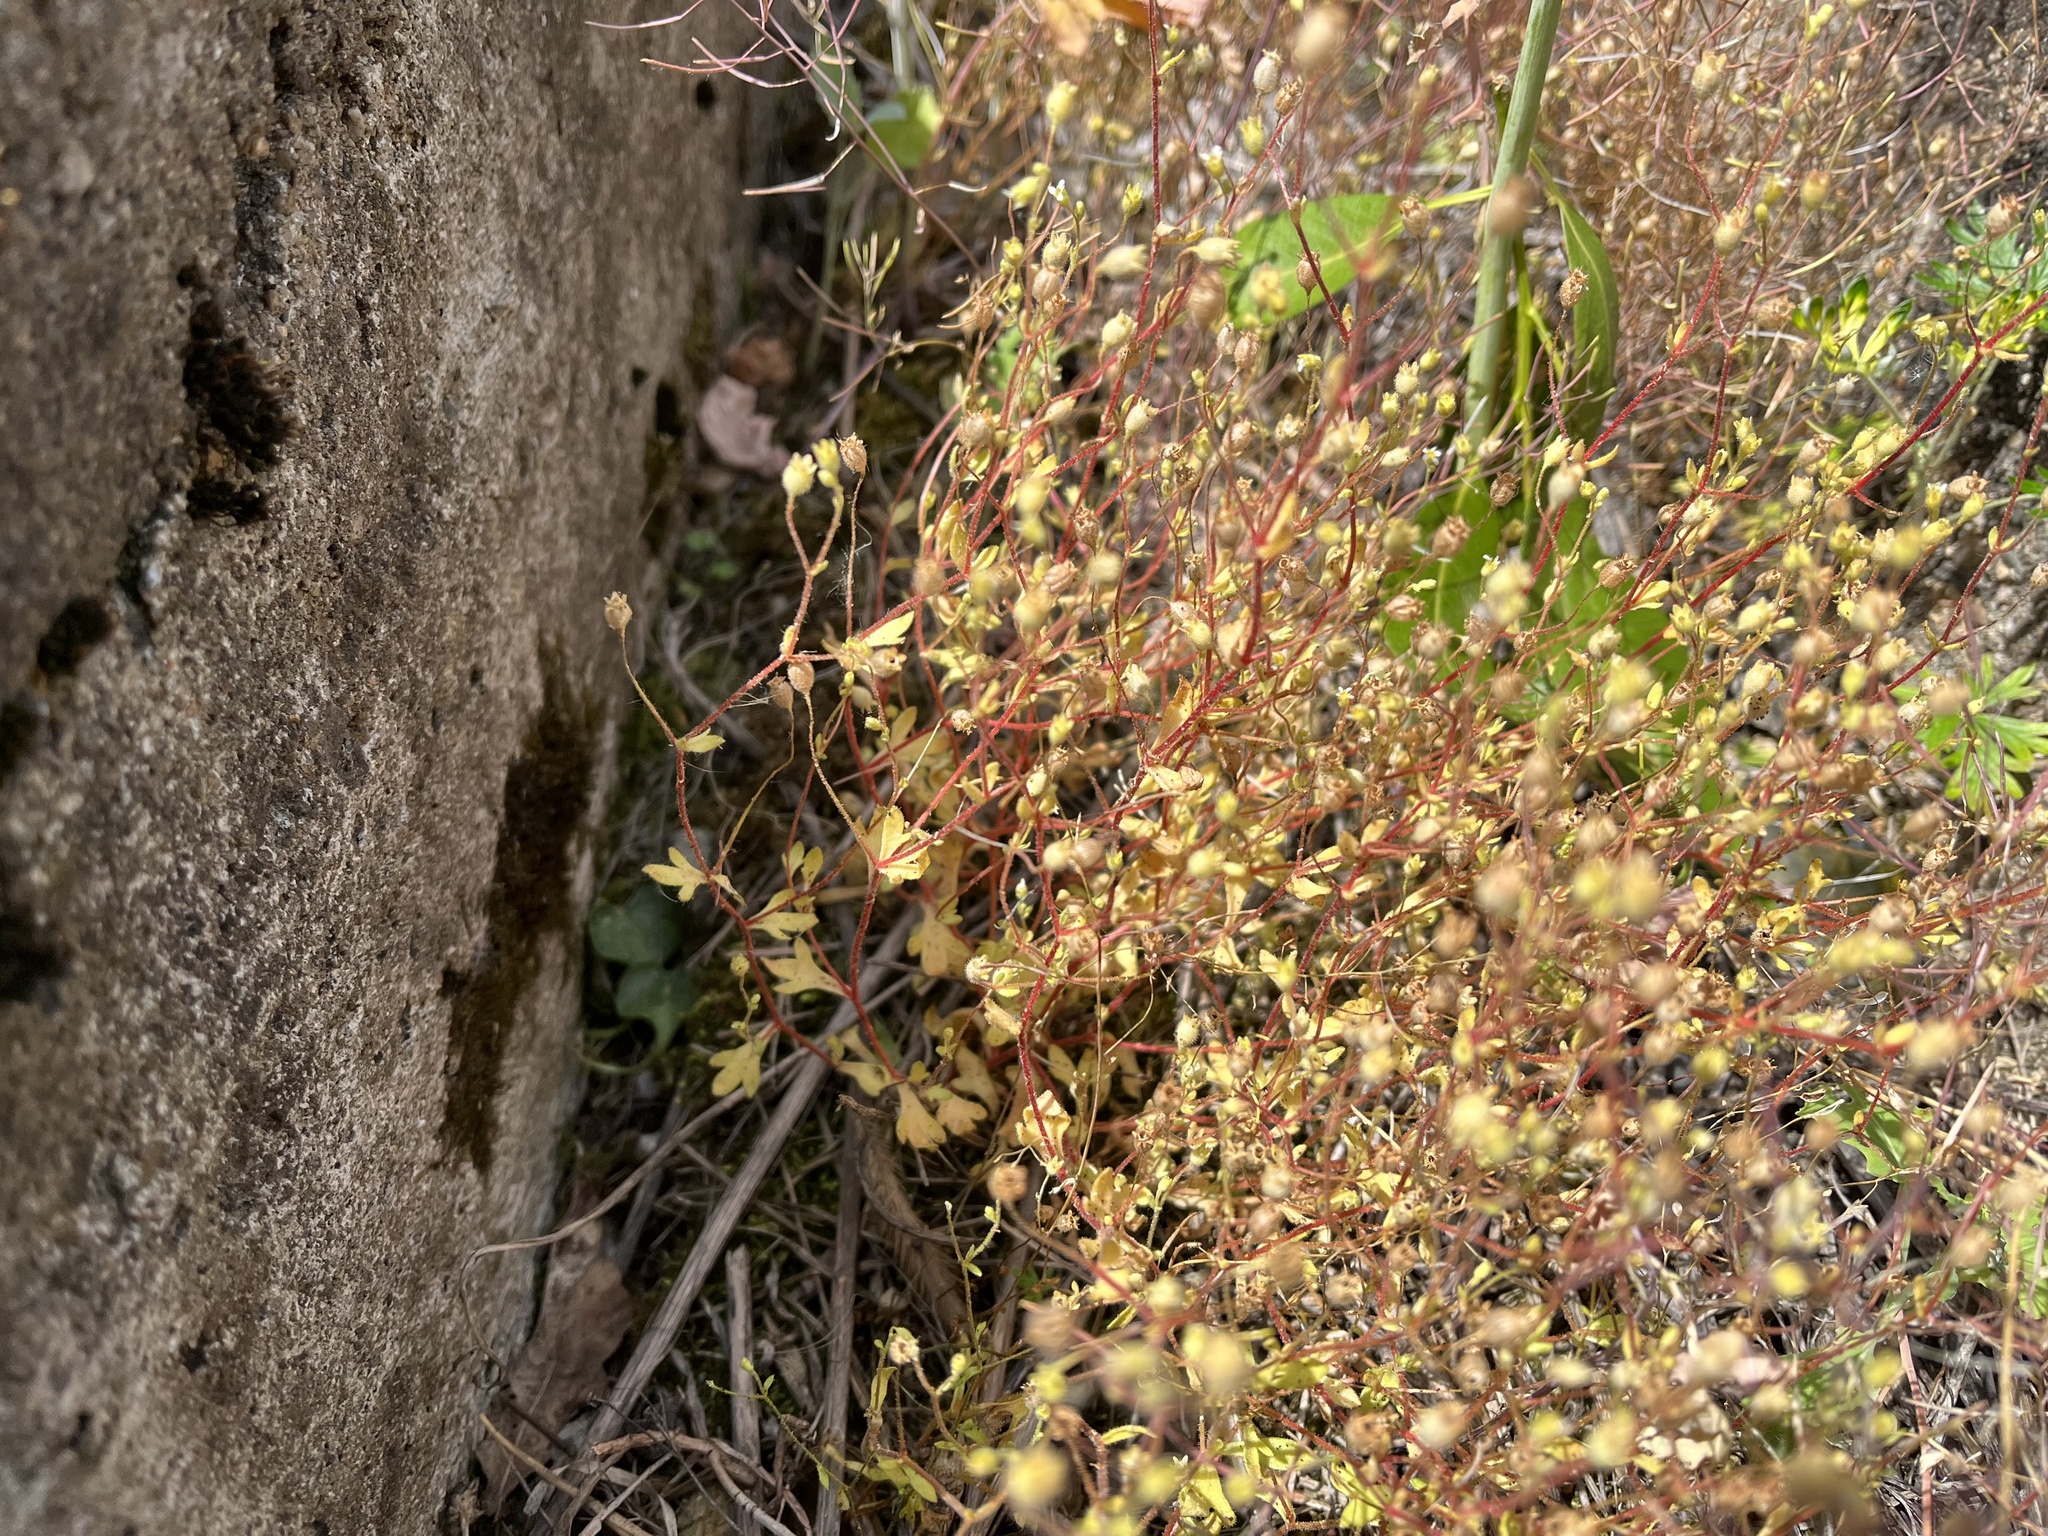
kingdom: Plantae
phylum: Tracheophyta
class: Magnoliopsida
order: Saxifragales
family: Saxifragaceae
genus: Saxifraga
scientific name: Saxifraga tridactylites
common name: Rue-leaved saxifrage
